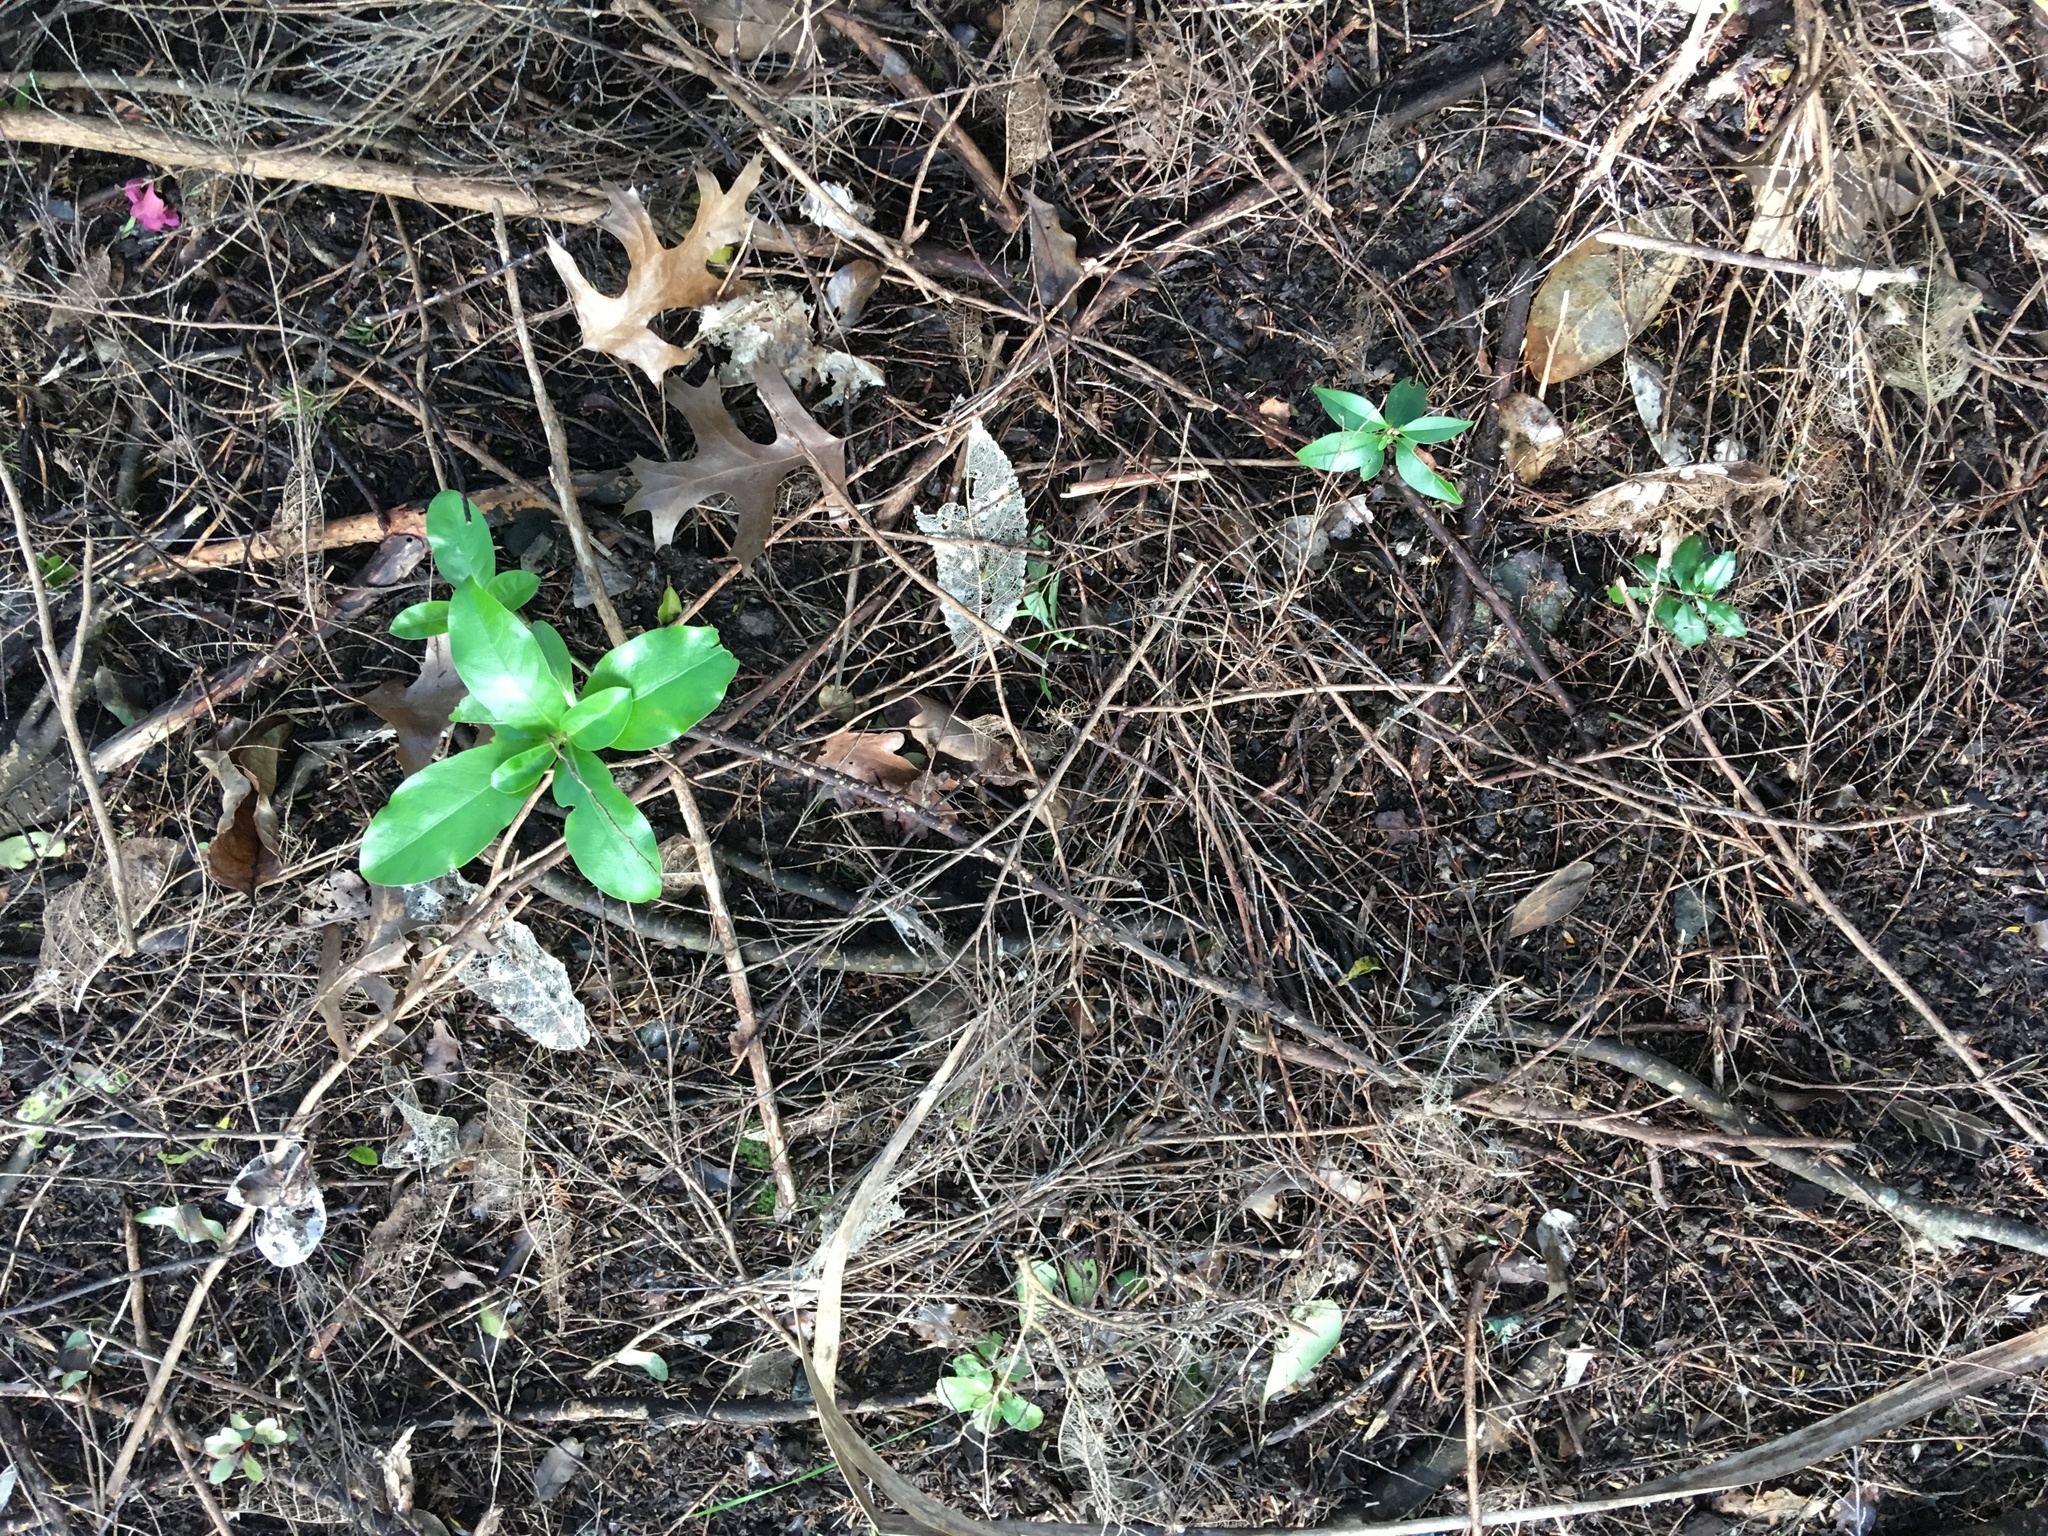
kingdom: Plantae
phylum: Tracheophyta
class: Magnoliopsida
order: Lamiales
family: Oleaceae
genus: Ligustrum
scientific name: Ligustrum lucidum
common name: Glossy privet
